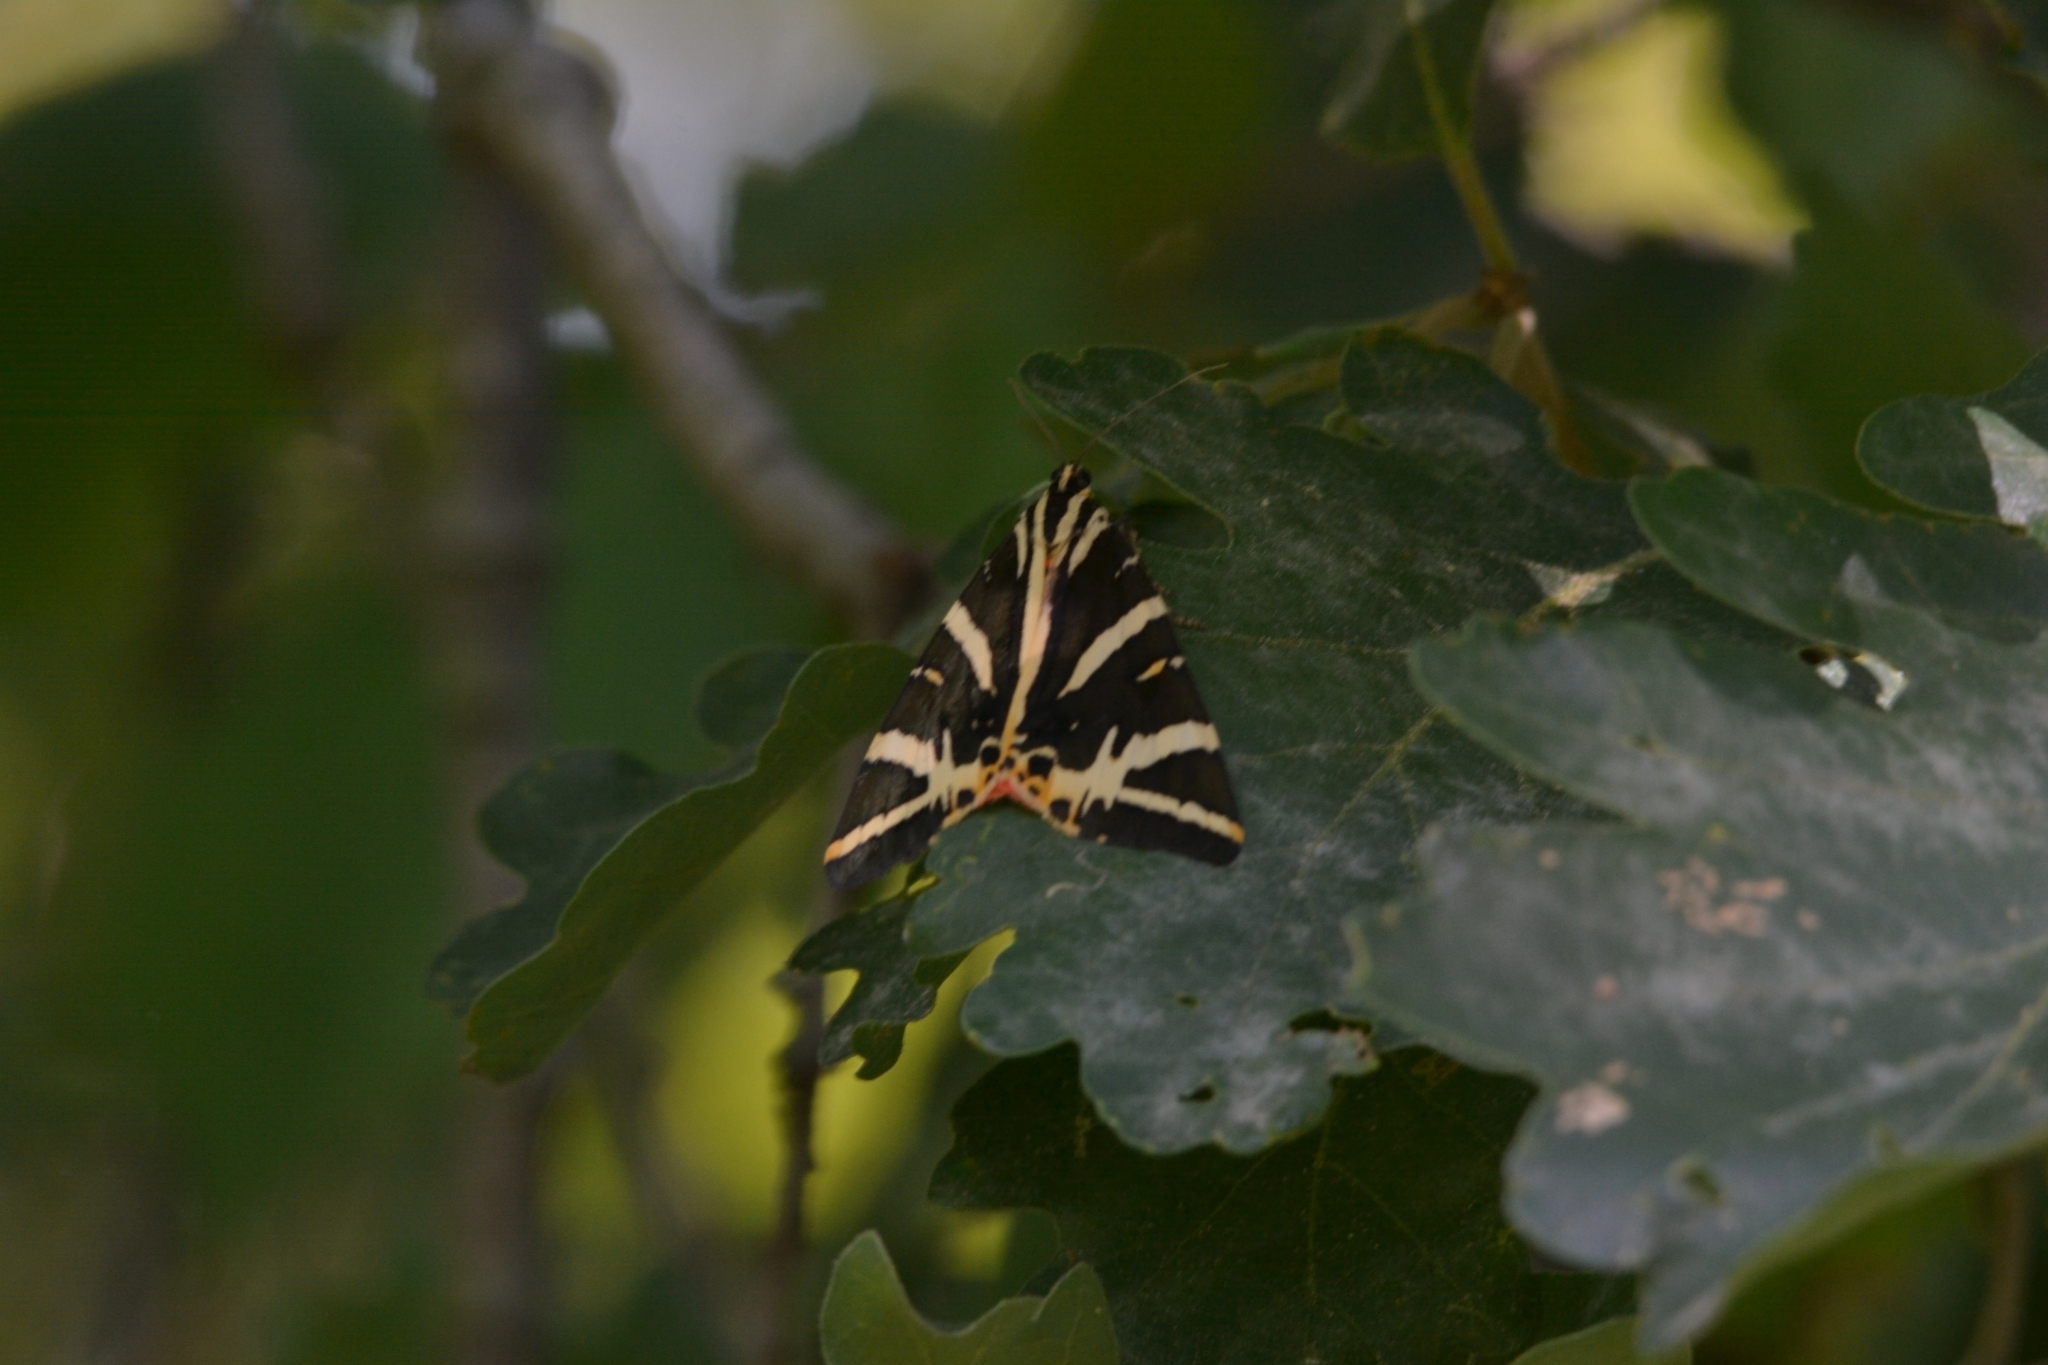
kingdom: Animalia
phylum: Arthropoda
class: Insecta
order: Lepidoptera
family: Erebidae
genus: Euplagia
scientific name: Euplagia quadripunctaria
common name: Jersey tiger
